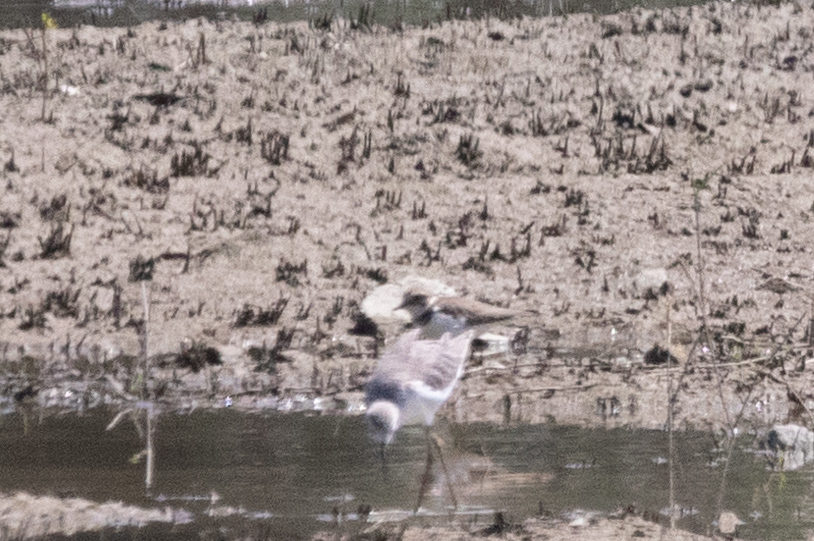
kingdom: Animalia
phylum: Chordata
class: Aves
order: Charadriiformes
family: Charadriidae
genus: Charadrius
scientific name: Charadrius dubius
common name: Little ringed plover
